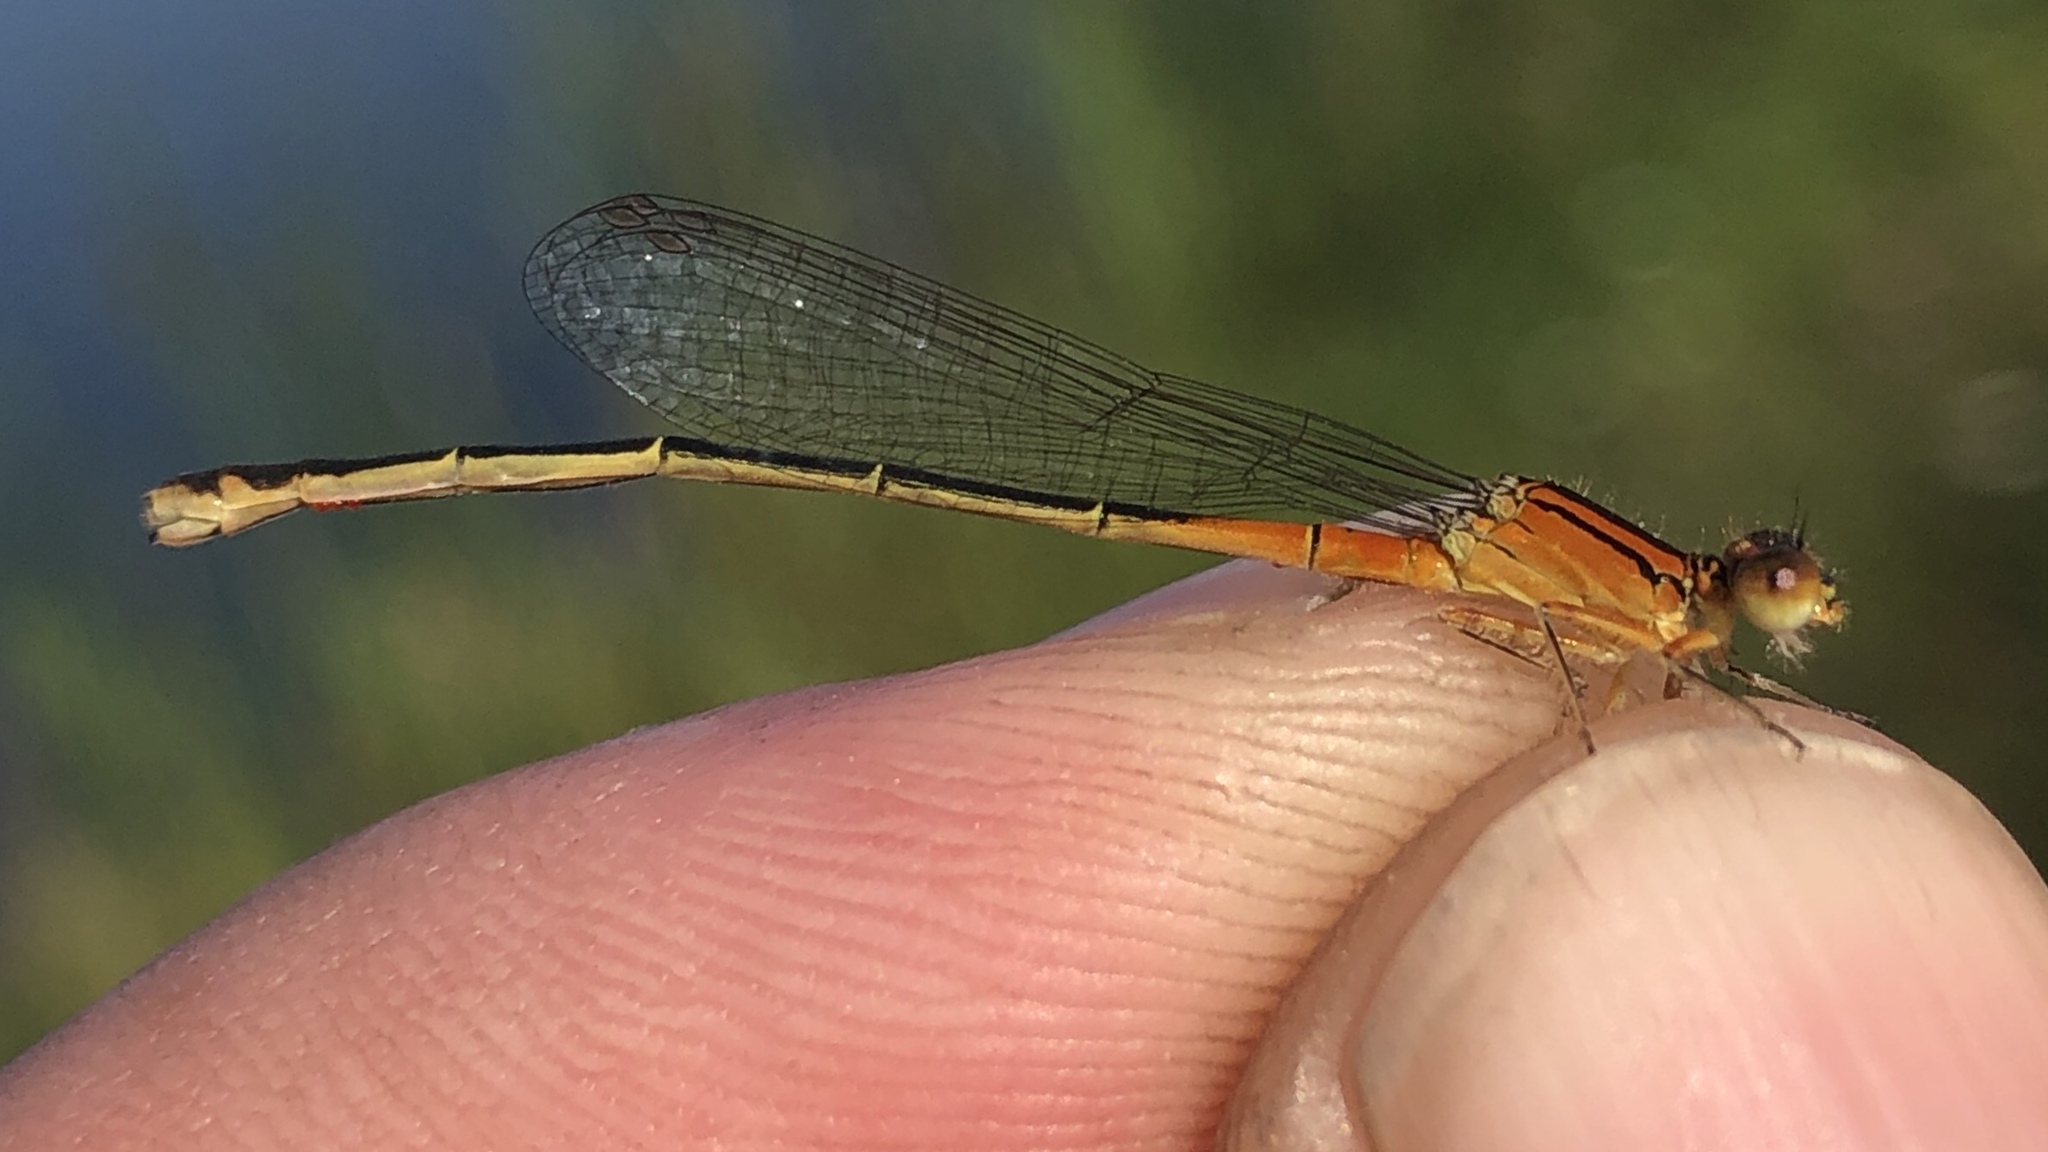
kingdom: Animalia
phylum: Arthropoda
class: Insecta
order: Odonata
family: Coenagrionidae
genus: Ischnura
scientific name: Ischnura verticalis
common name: Eastern forktail
